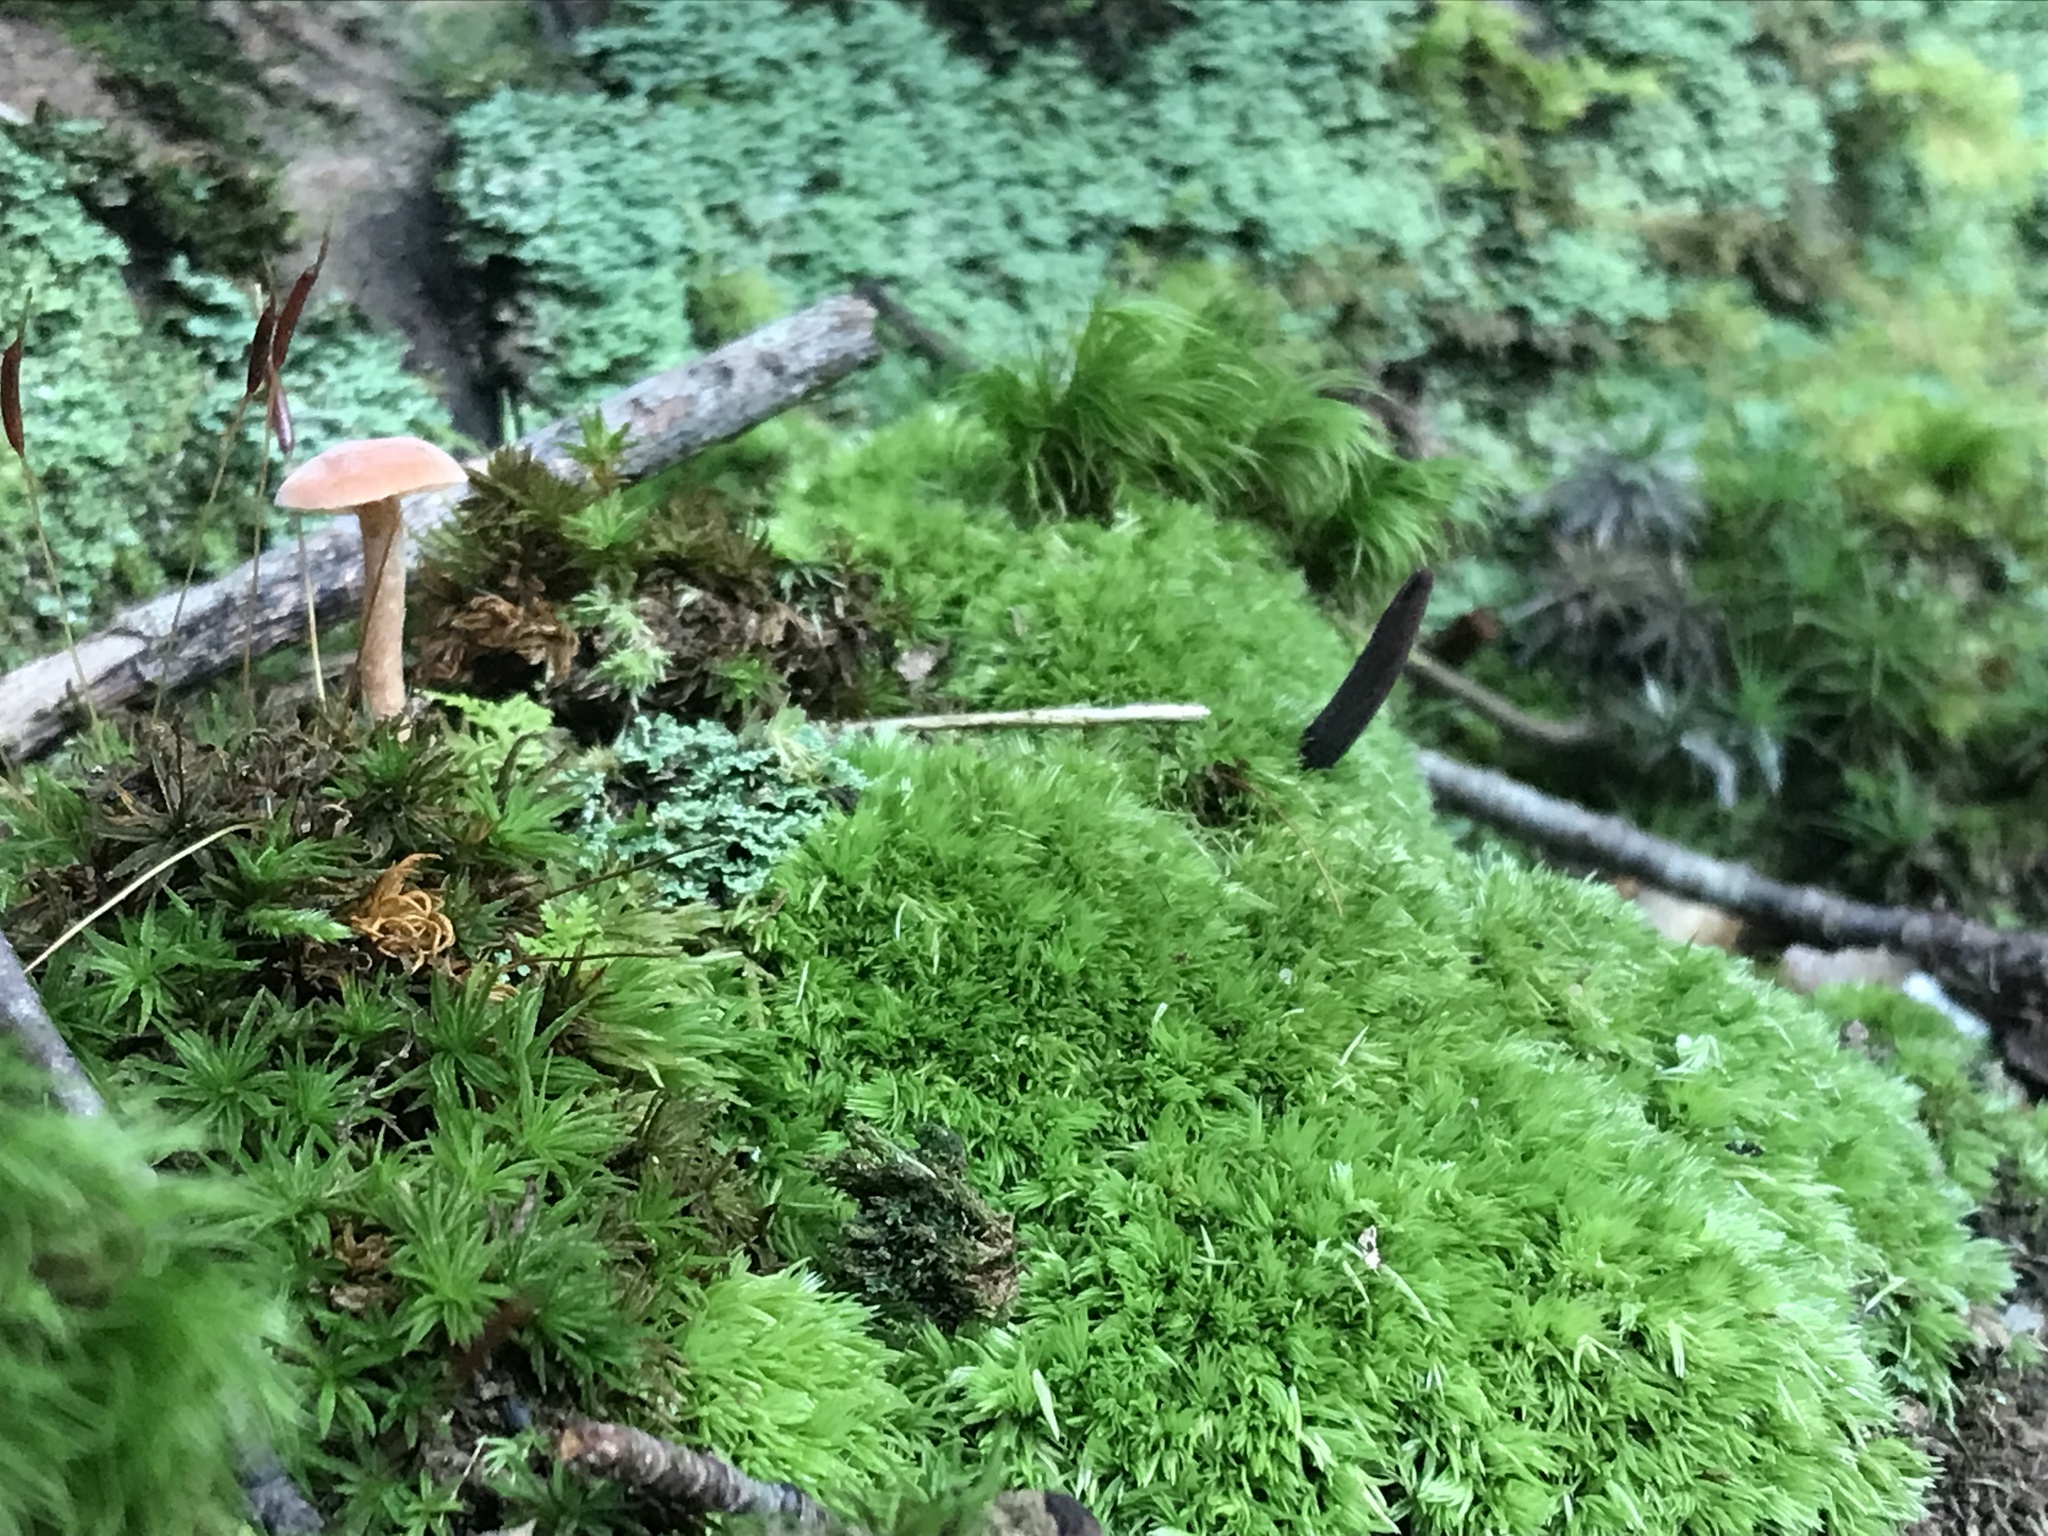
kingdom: Fungi
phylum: Ascomycota
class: Sordariomycetes
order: Hypocreales
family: Ophiocordycipitaceae
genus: Ophiocordyceps
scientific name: Ophiocordyceps ravenelii
